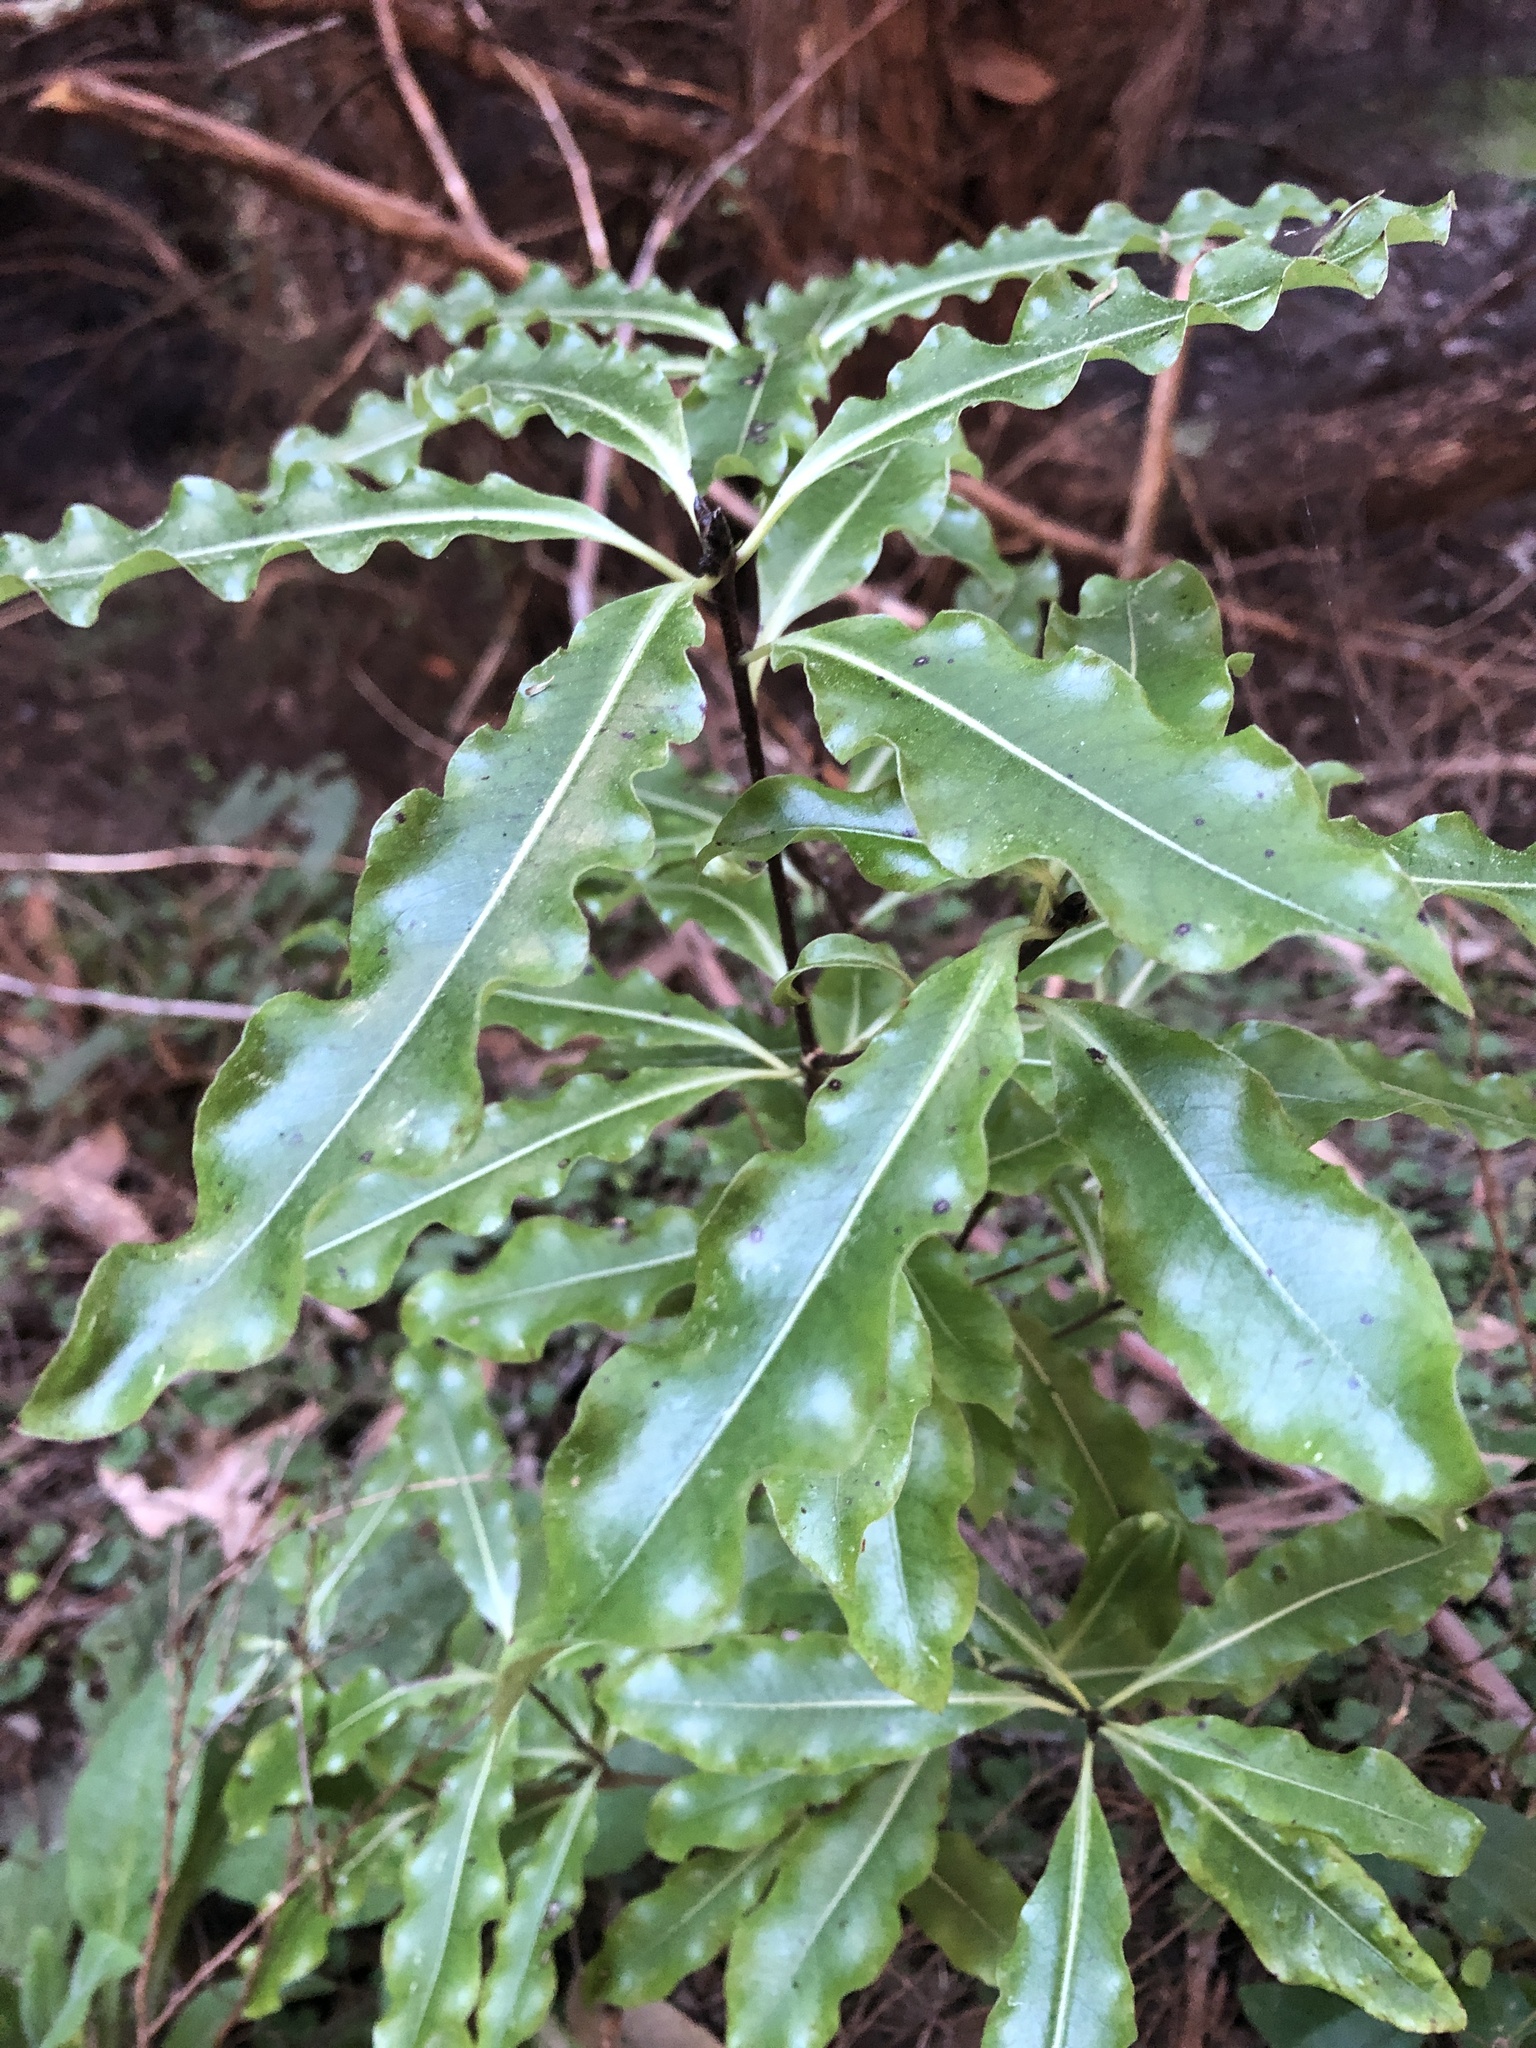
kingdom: Plantae
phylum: Tracheophyta
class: Magnoliopsida
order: Apiales
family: Pittosporaceae
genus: Pittosporum
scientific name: Pittosporum eugenioides
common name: Lemonwood
